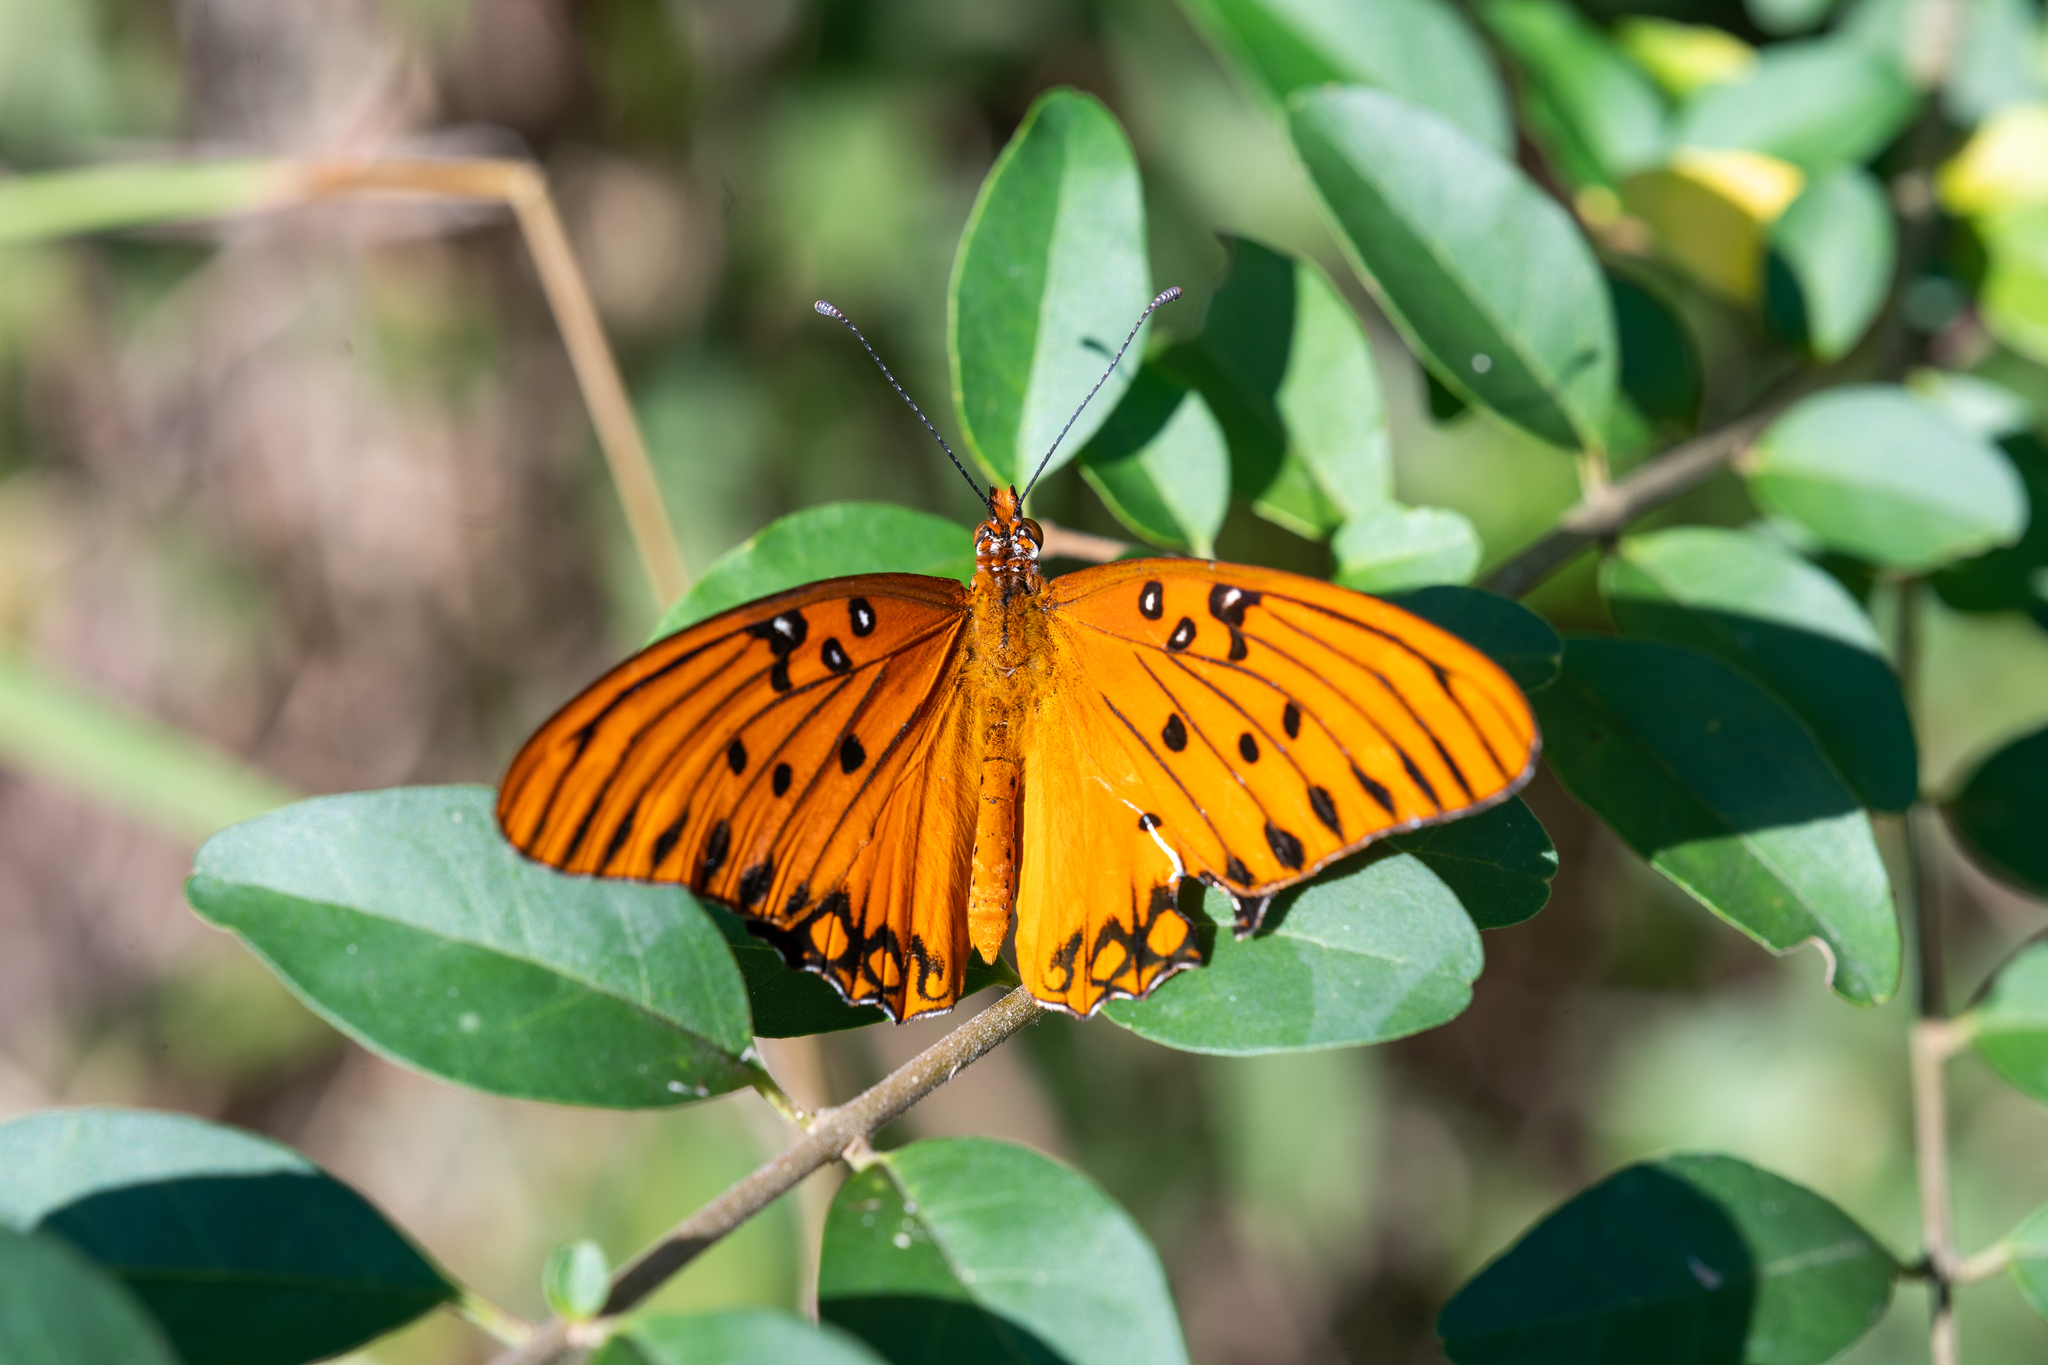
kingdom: Animalia
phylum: Arthropoda
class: Insecta
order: Lepidoptera
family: Nymphalidae
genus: Dione
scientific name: Dione vanillae
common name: Gulf fritillary
